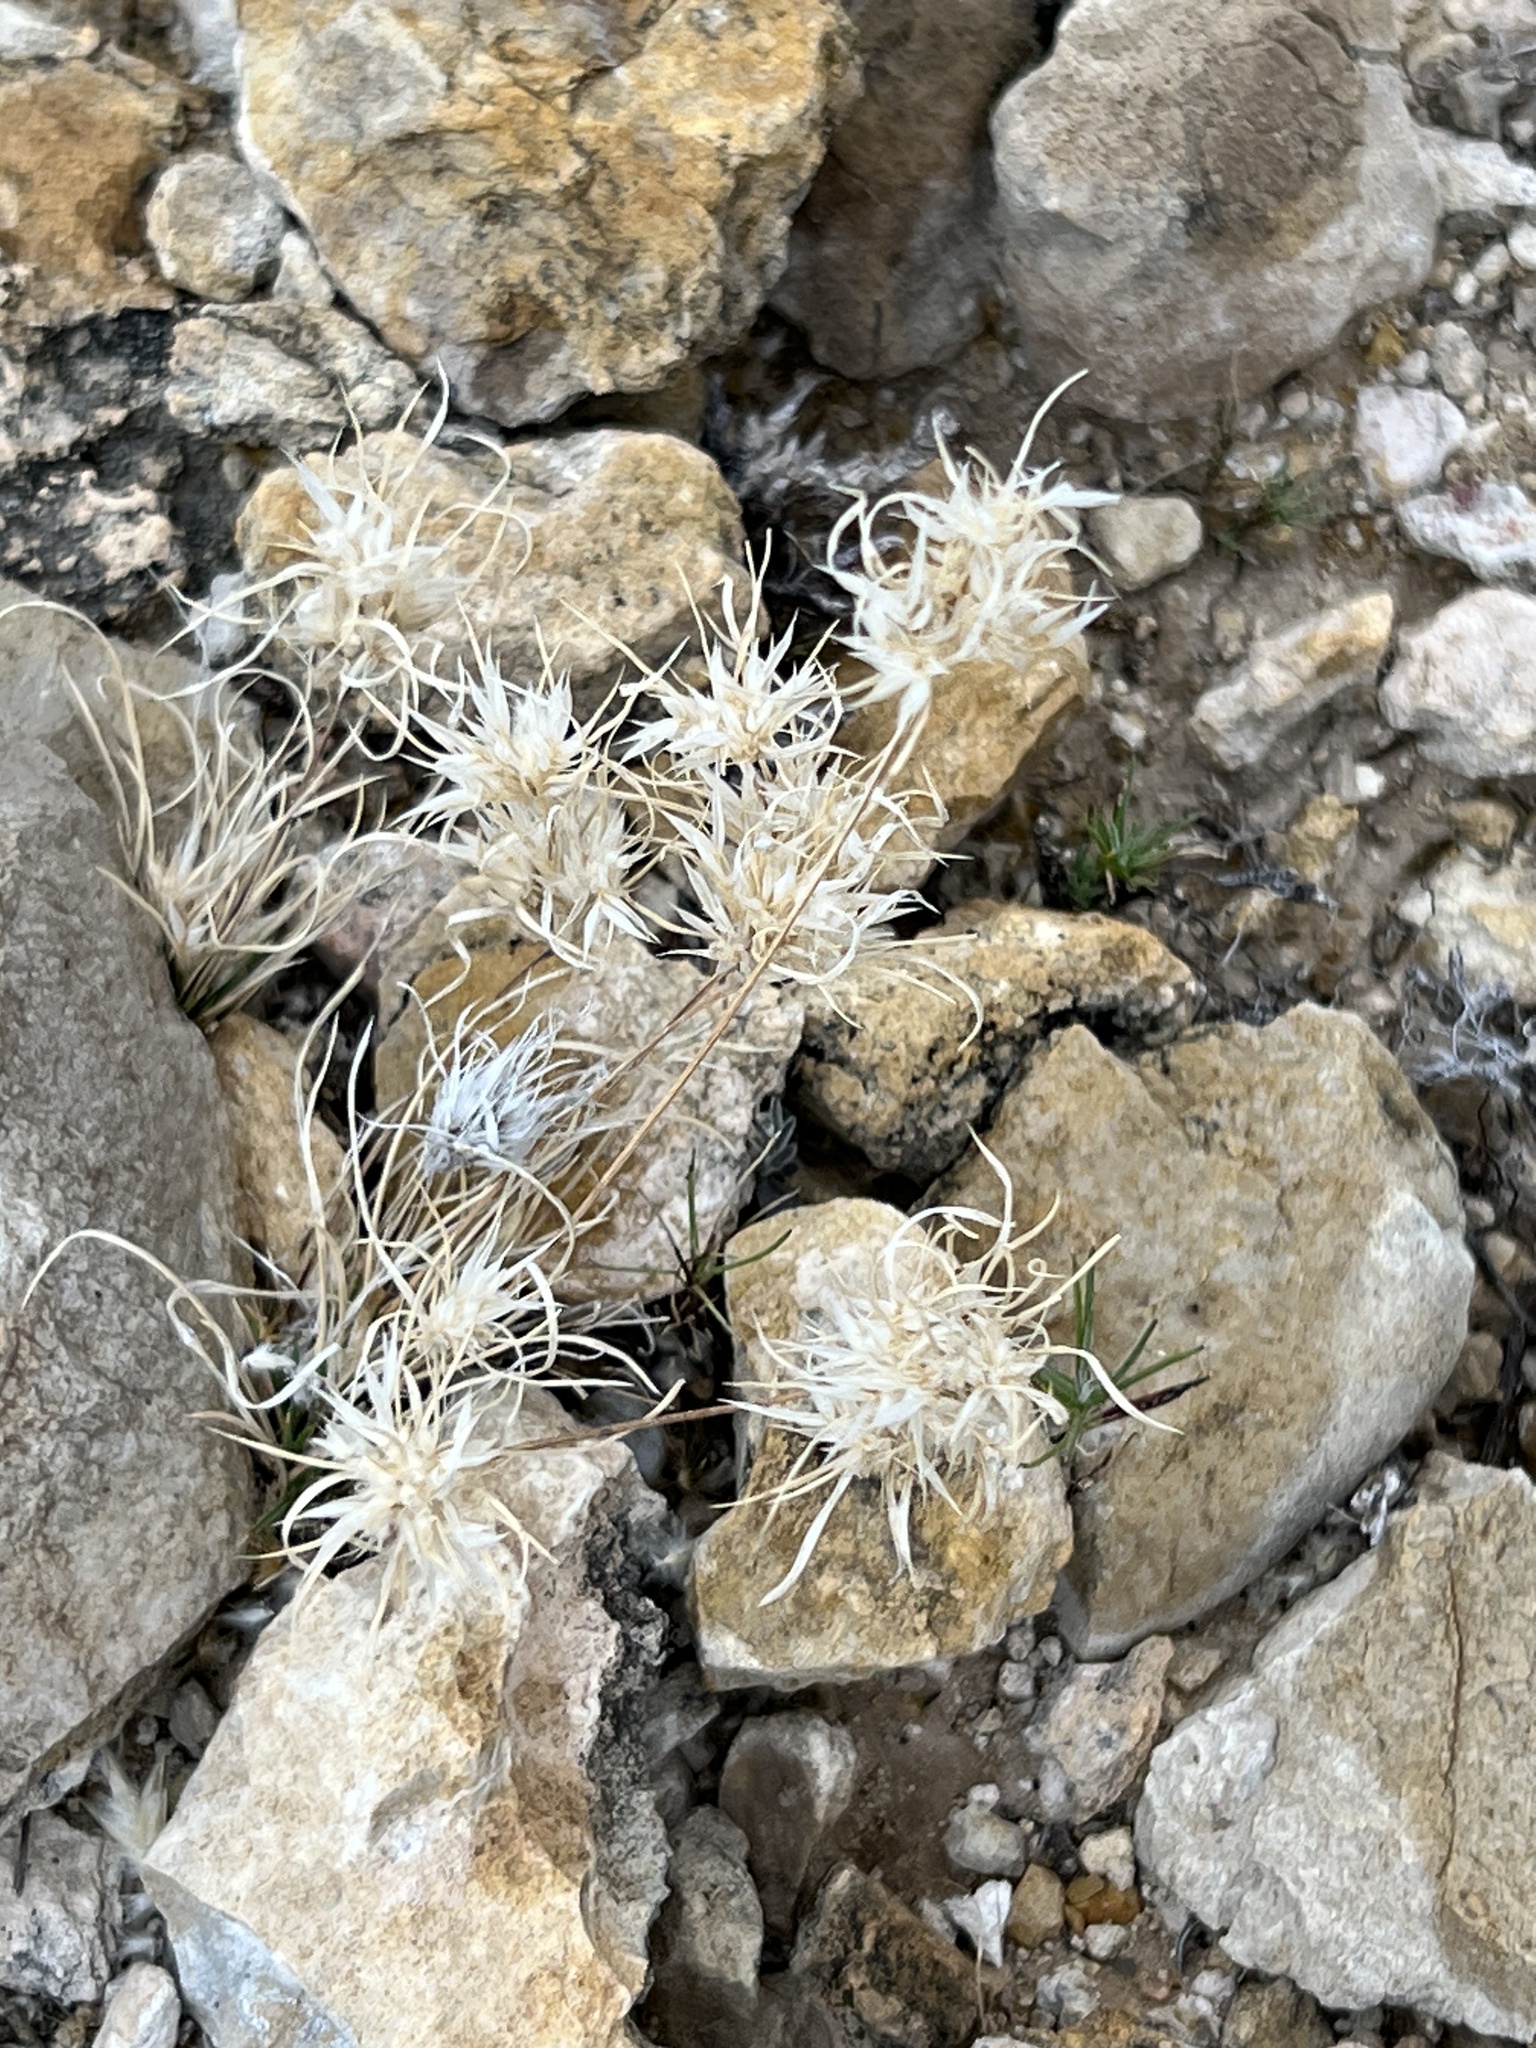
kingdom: Plantae
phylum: Tracheophyta
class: Liliopsida
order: Poales
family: Poaceae
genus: Dasyochloa
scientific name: Dasyochloa pulchella
